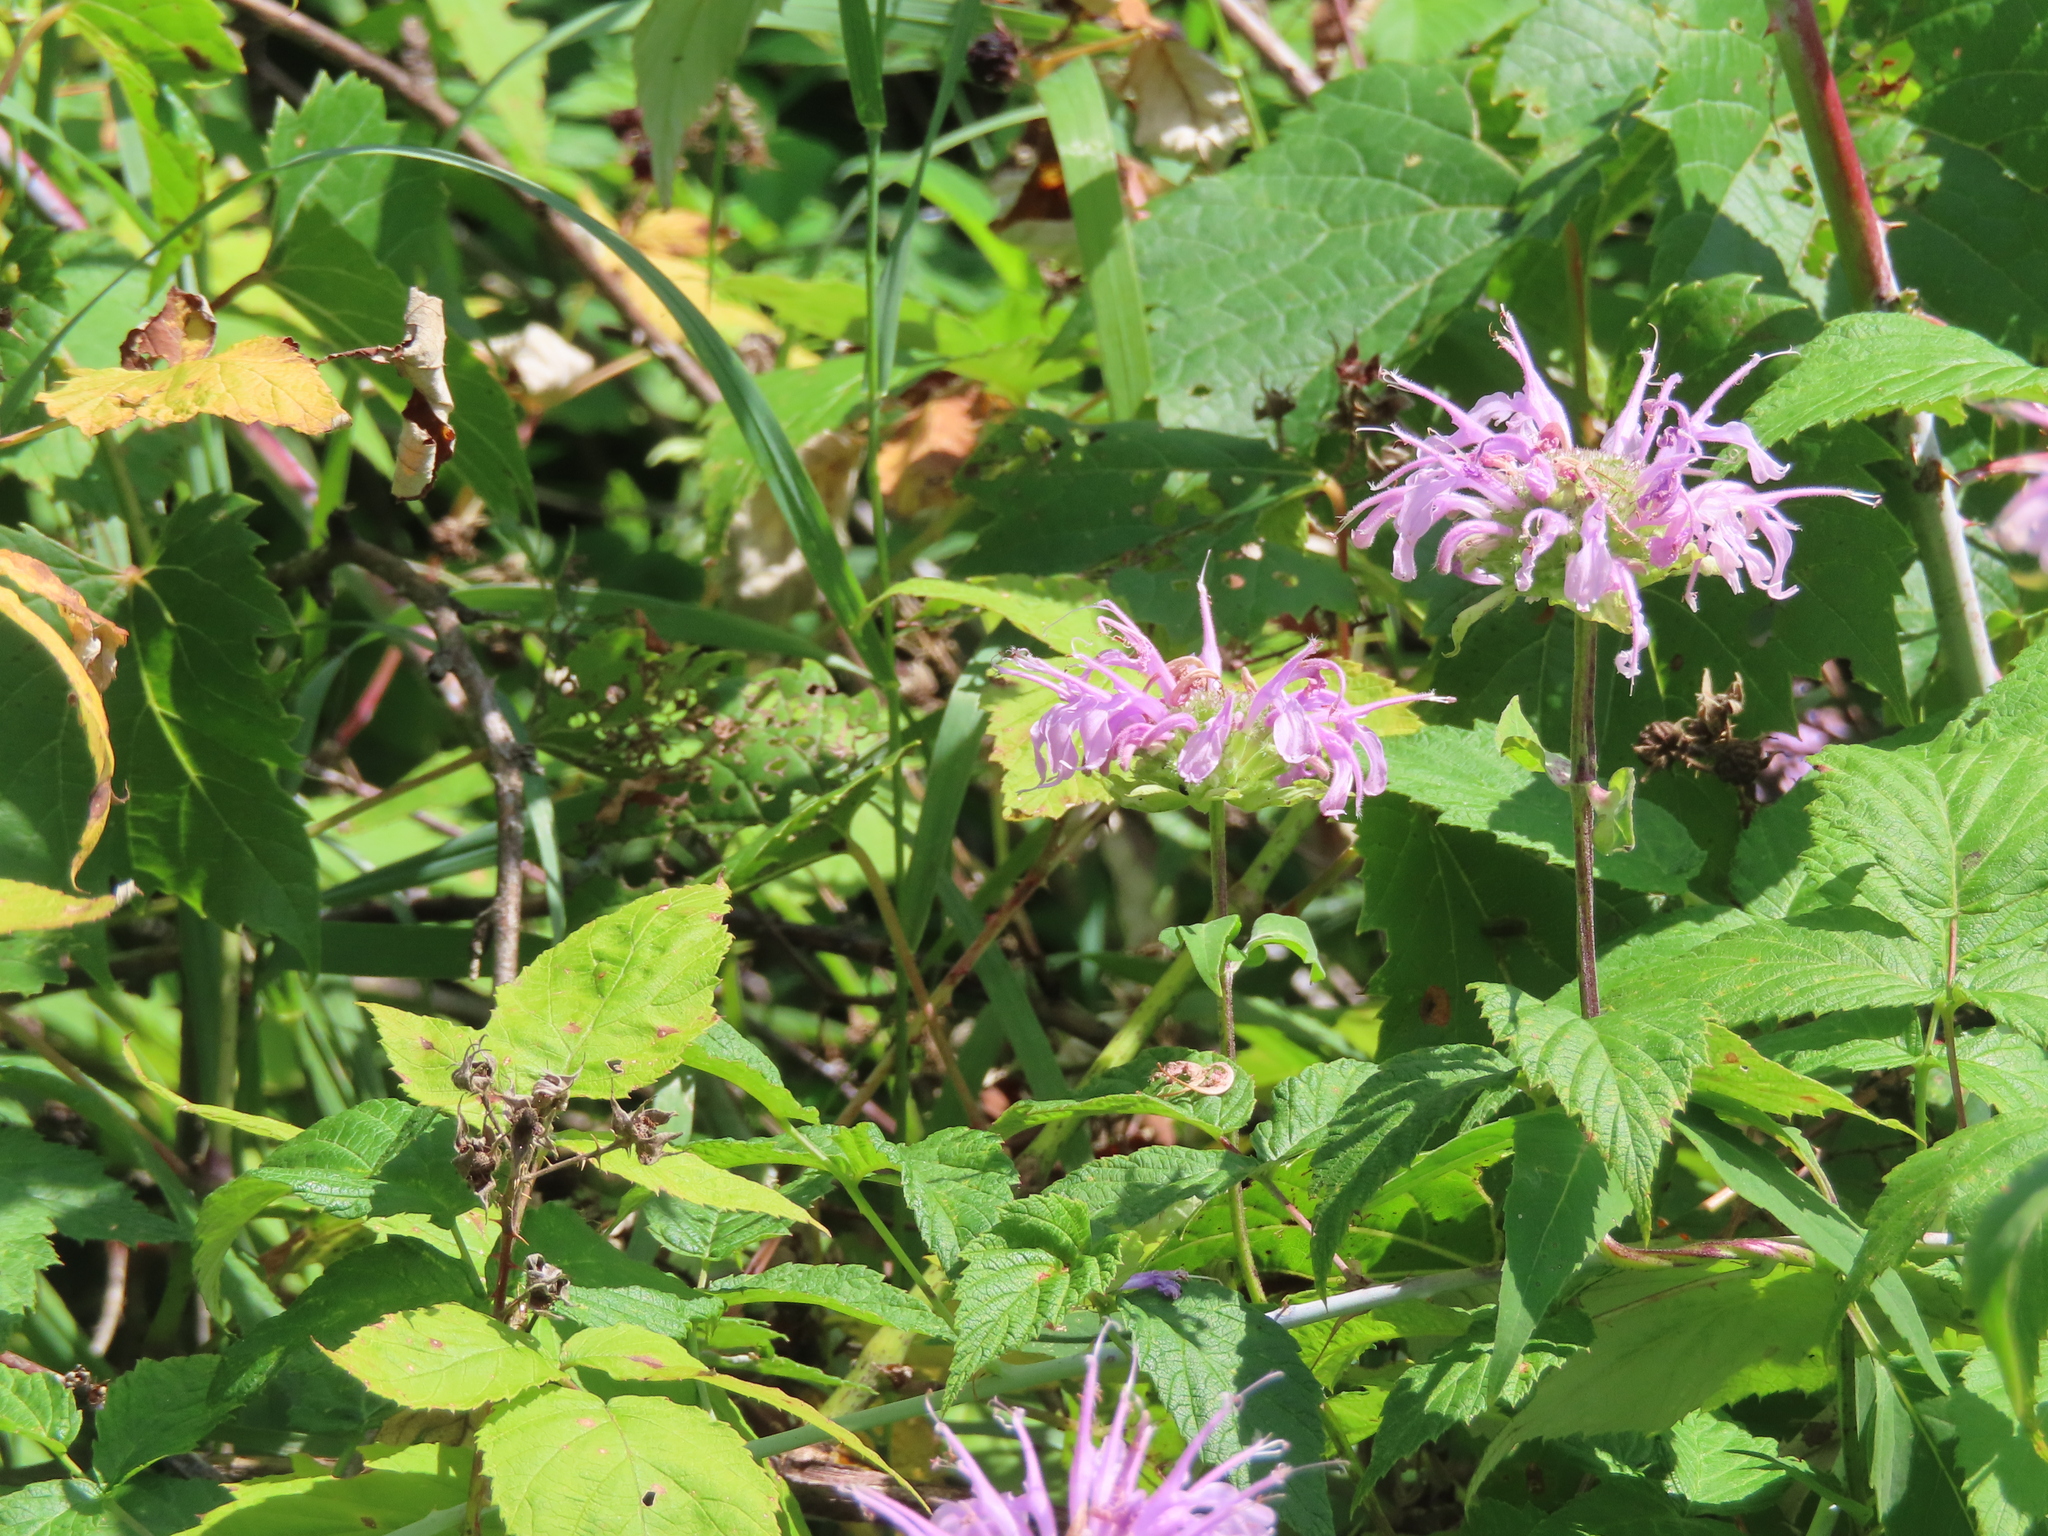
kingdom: Plantae
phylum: Tracheophyta
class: Magnoliopsida
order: Lamiales
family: Lamiaceae
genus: Monarda
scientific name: Monarda fistulosa
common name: Purple beebalm
